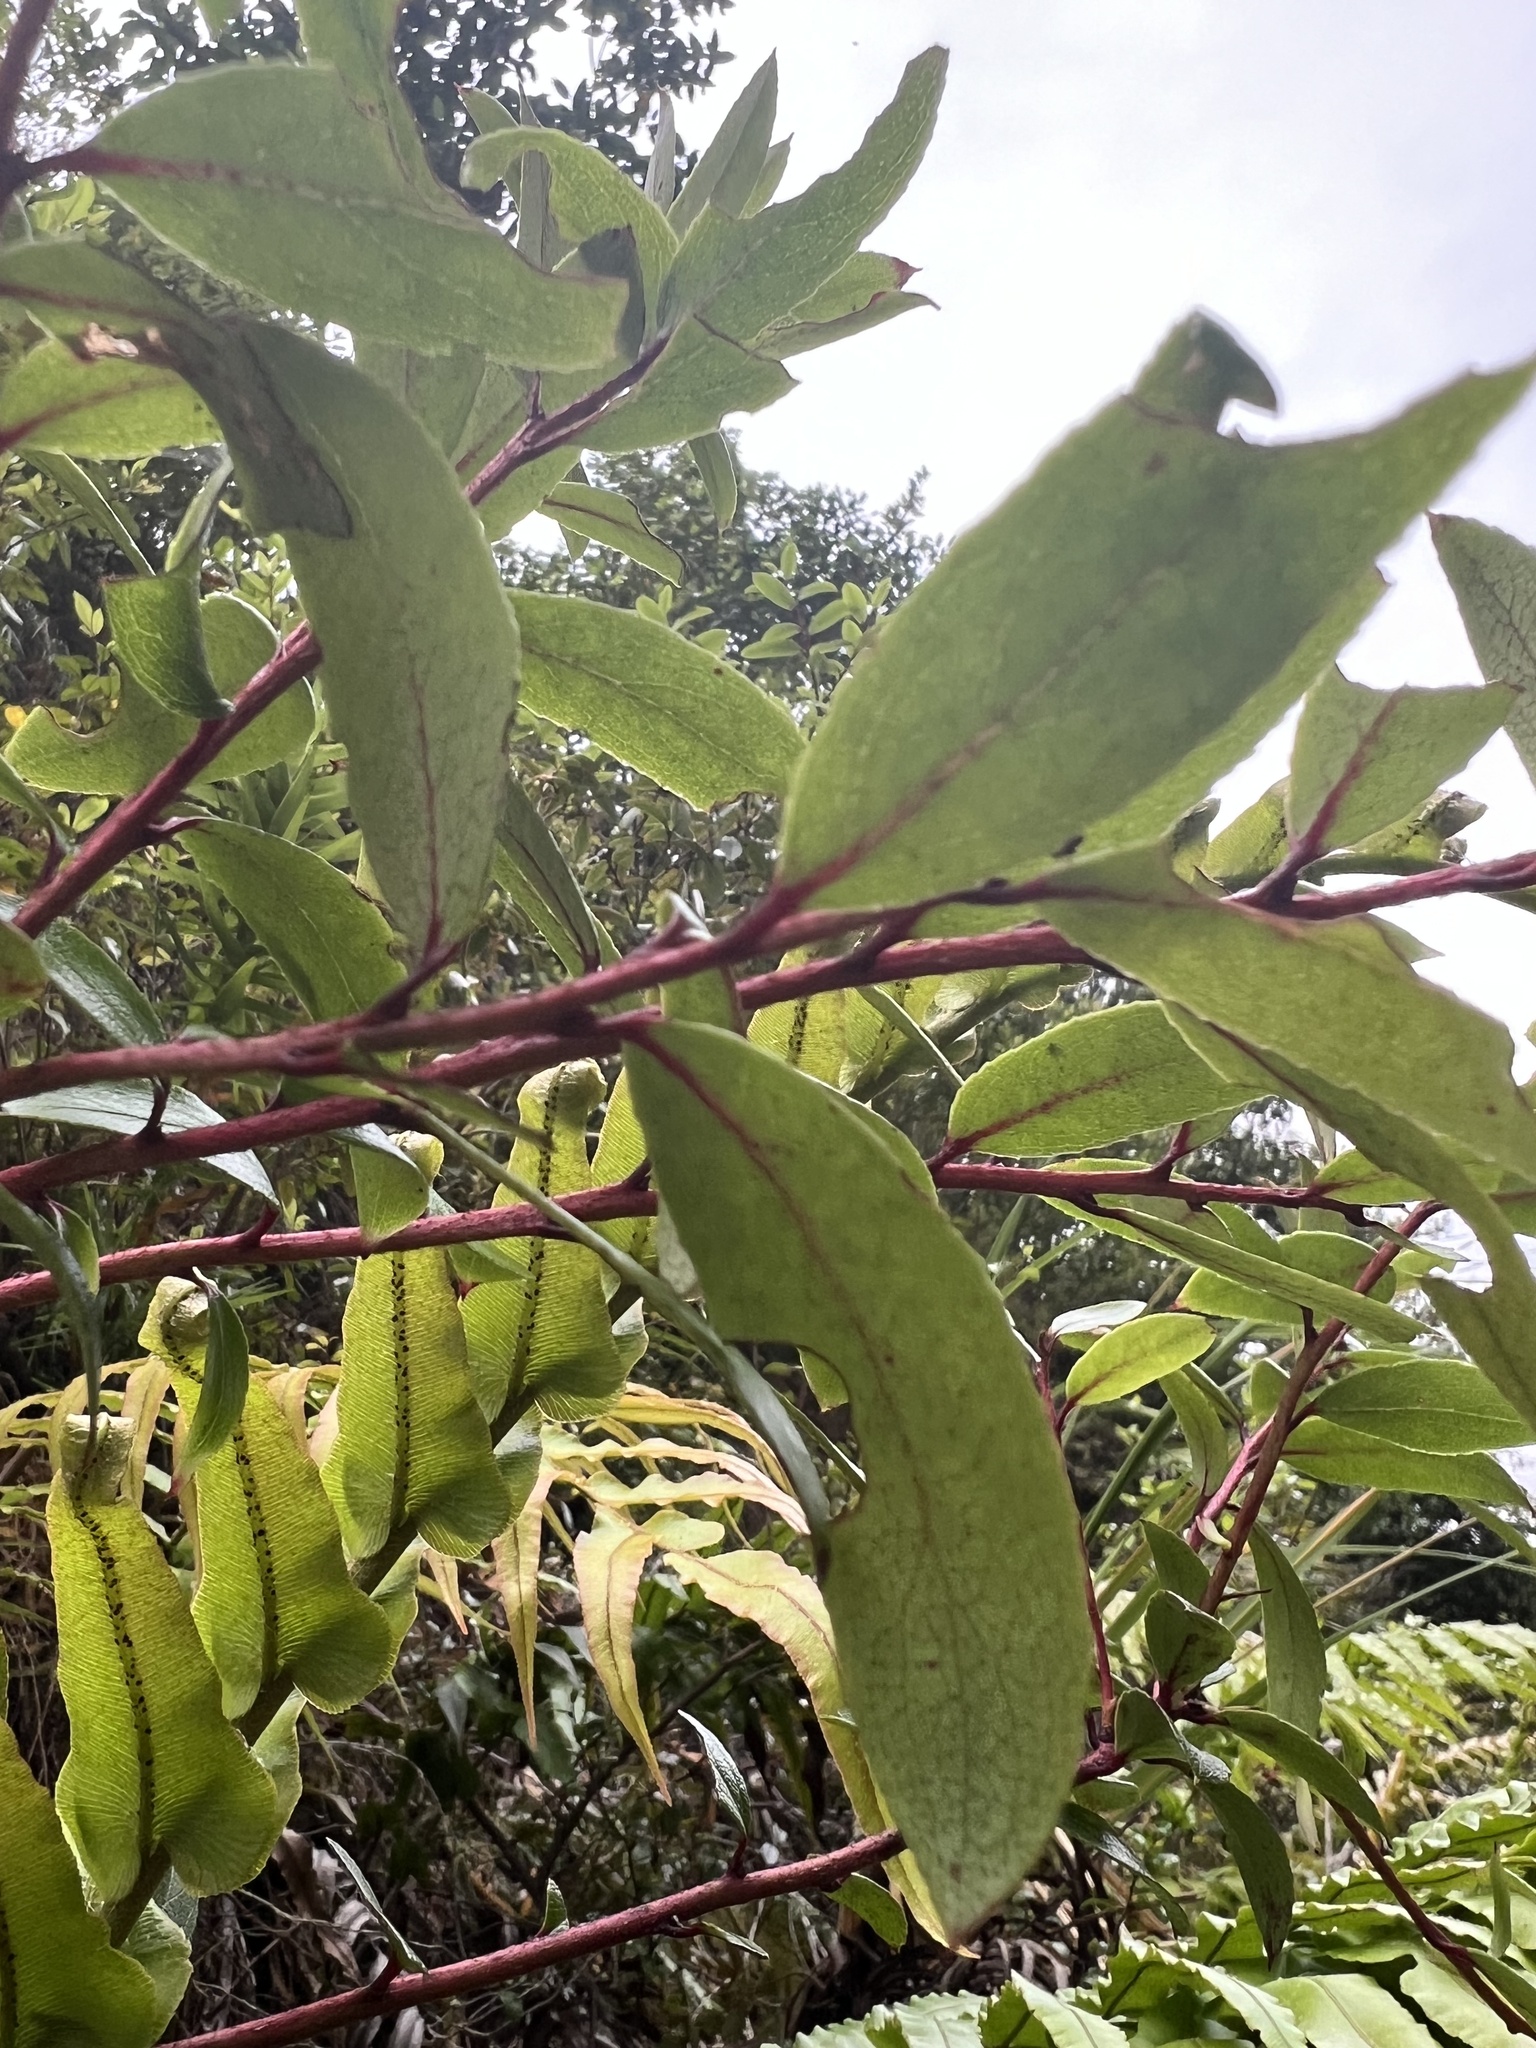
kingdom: Plantae
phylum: Tracheophyta
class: Magnoliopsida
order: Ericales
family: Ericaceae
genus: Gaultheria
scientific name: Gaultheria paniculata
